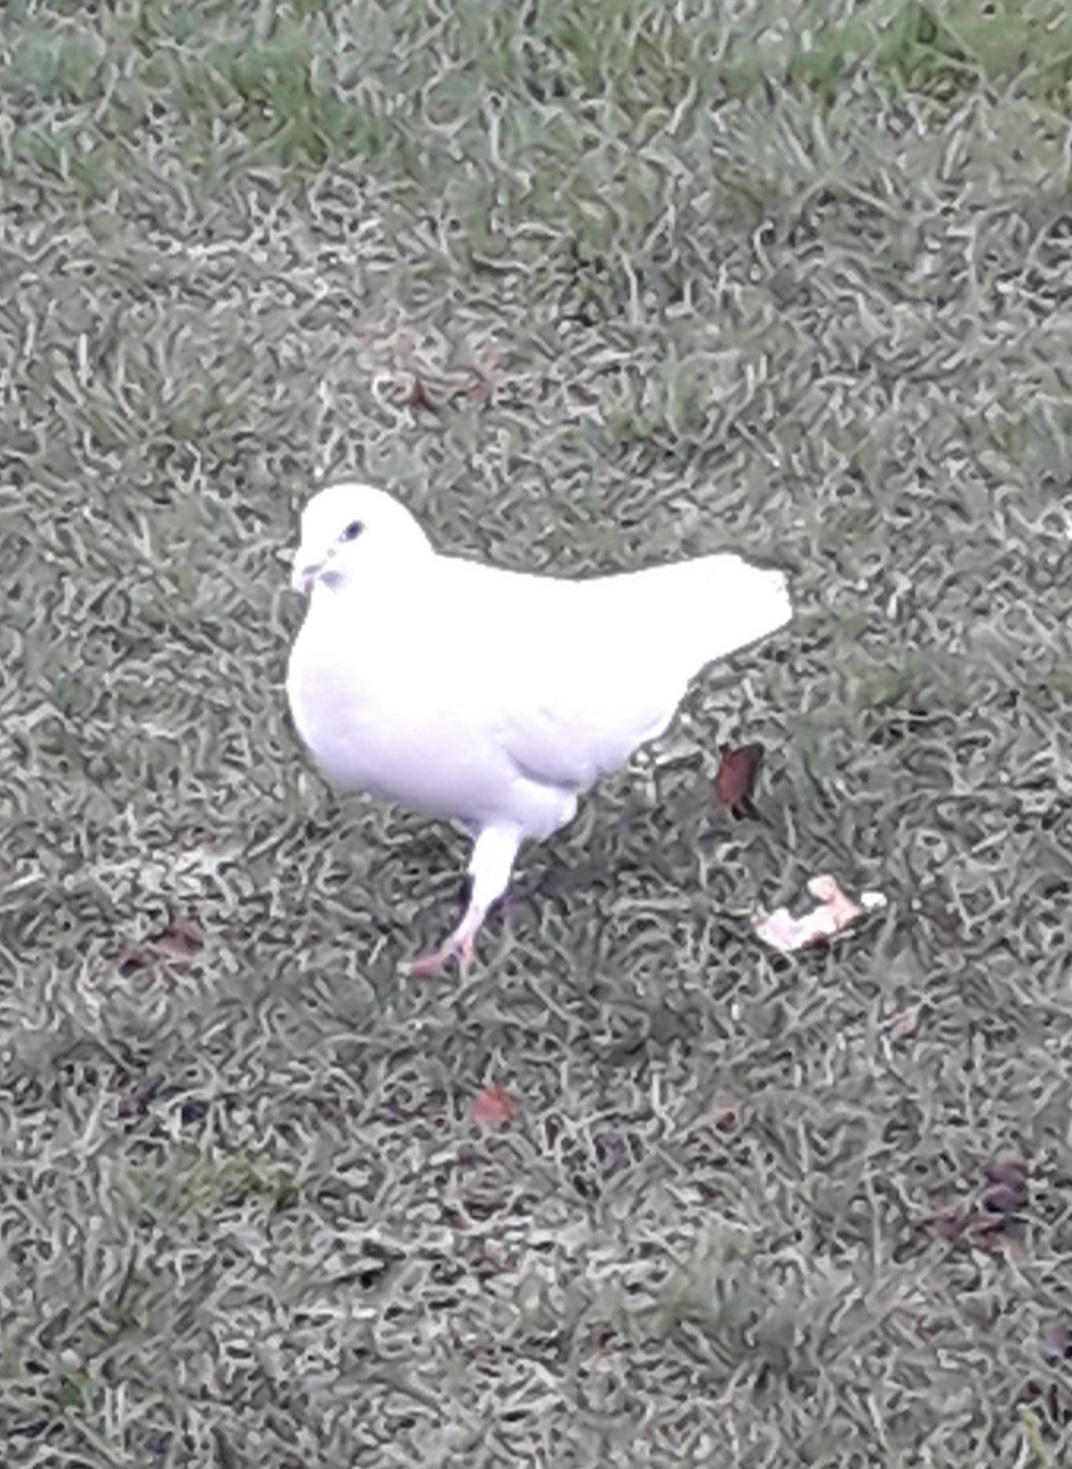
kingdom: Animalia
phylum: Chordata
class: Aves
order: Columbiformes
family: Columbidae
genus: Columba
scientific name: Columba livia
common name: Rock pigeon
